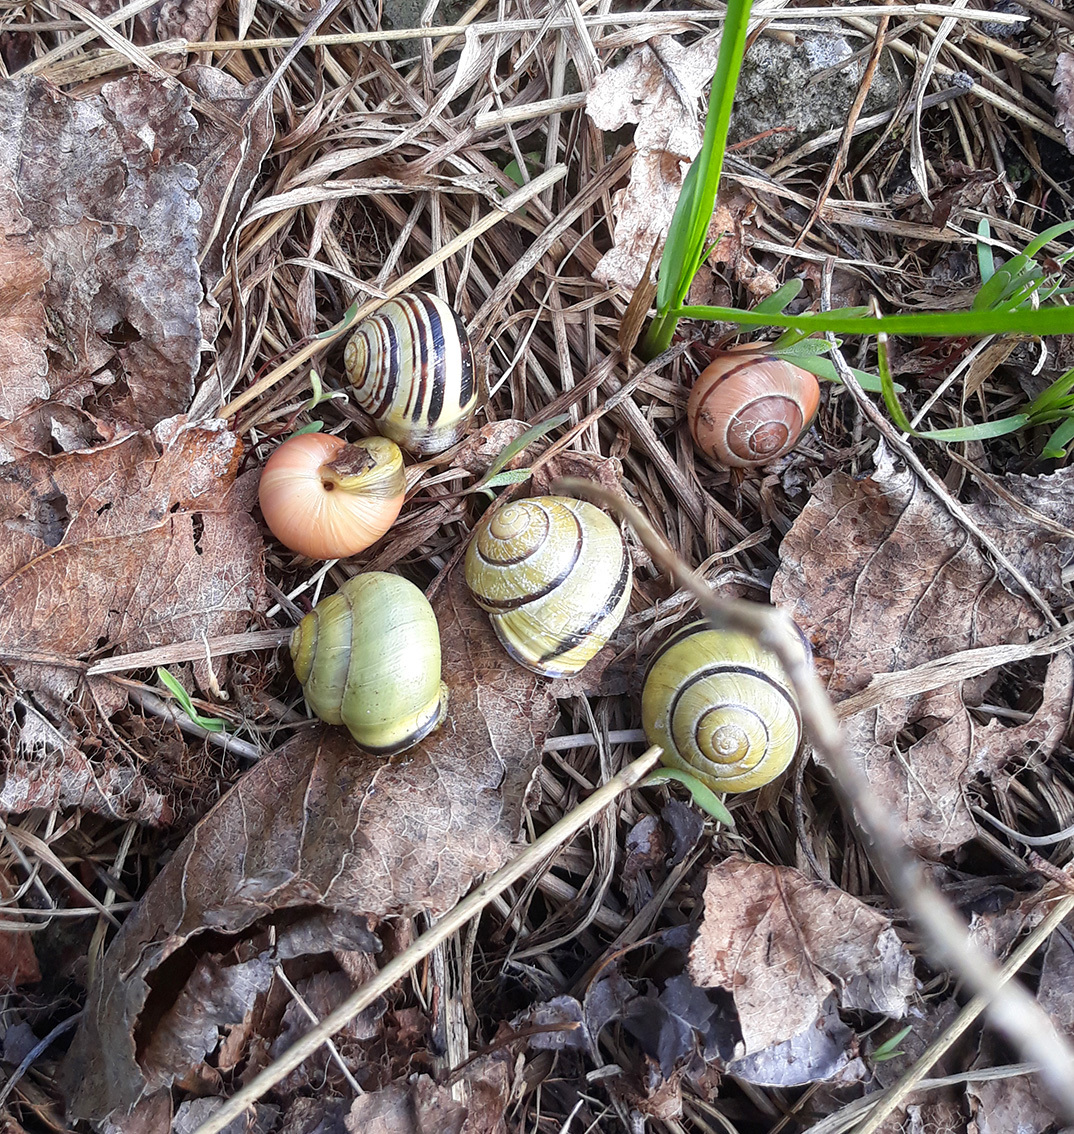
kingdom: Animalia
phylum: Mollusca
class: Gastropoda
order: Stylommatophora
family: Helicidae
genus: Cepaea
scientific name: Cepaea nemoralis
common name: Grovesnail
